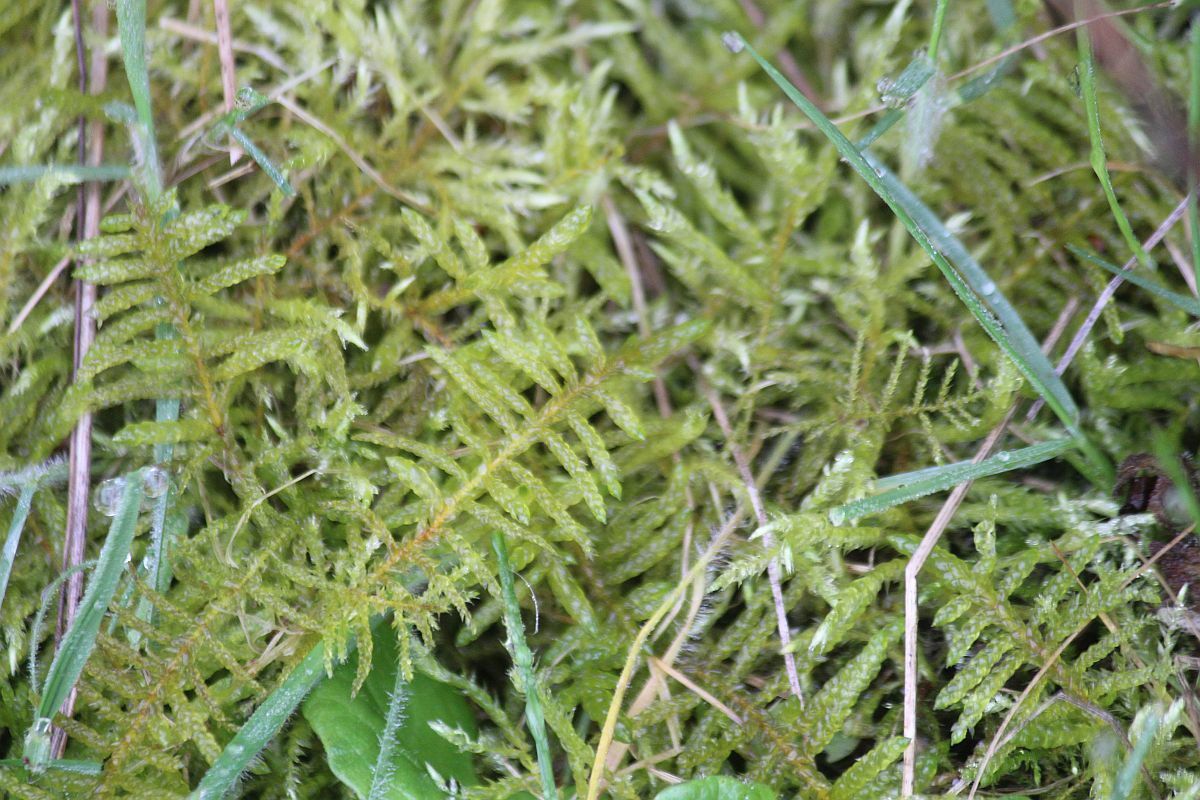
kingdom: Plantae
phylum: Bryophyta
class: Bryopsida
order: Hypnales
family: Brachytheciaceae
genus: Pseudoscleropodium
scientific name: Pseudoscleropodium purum
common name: Neat feather-moss
